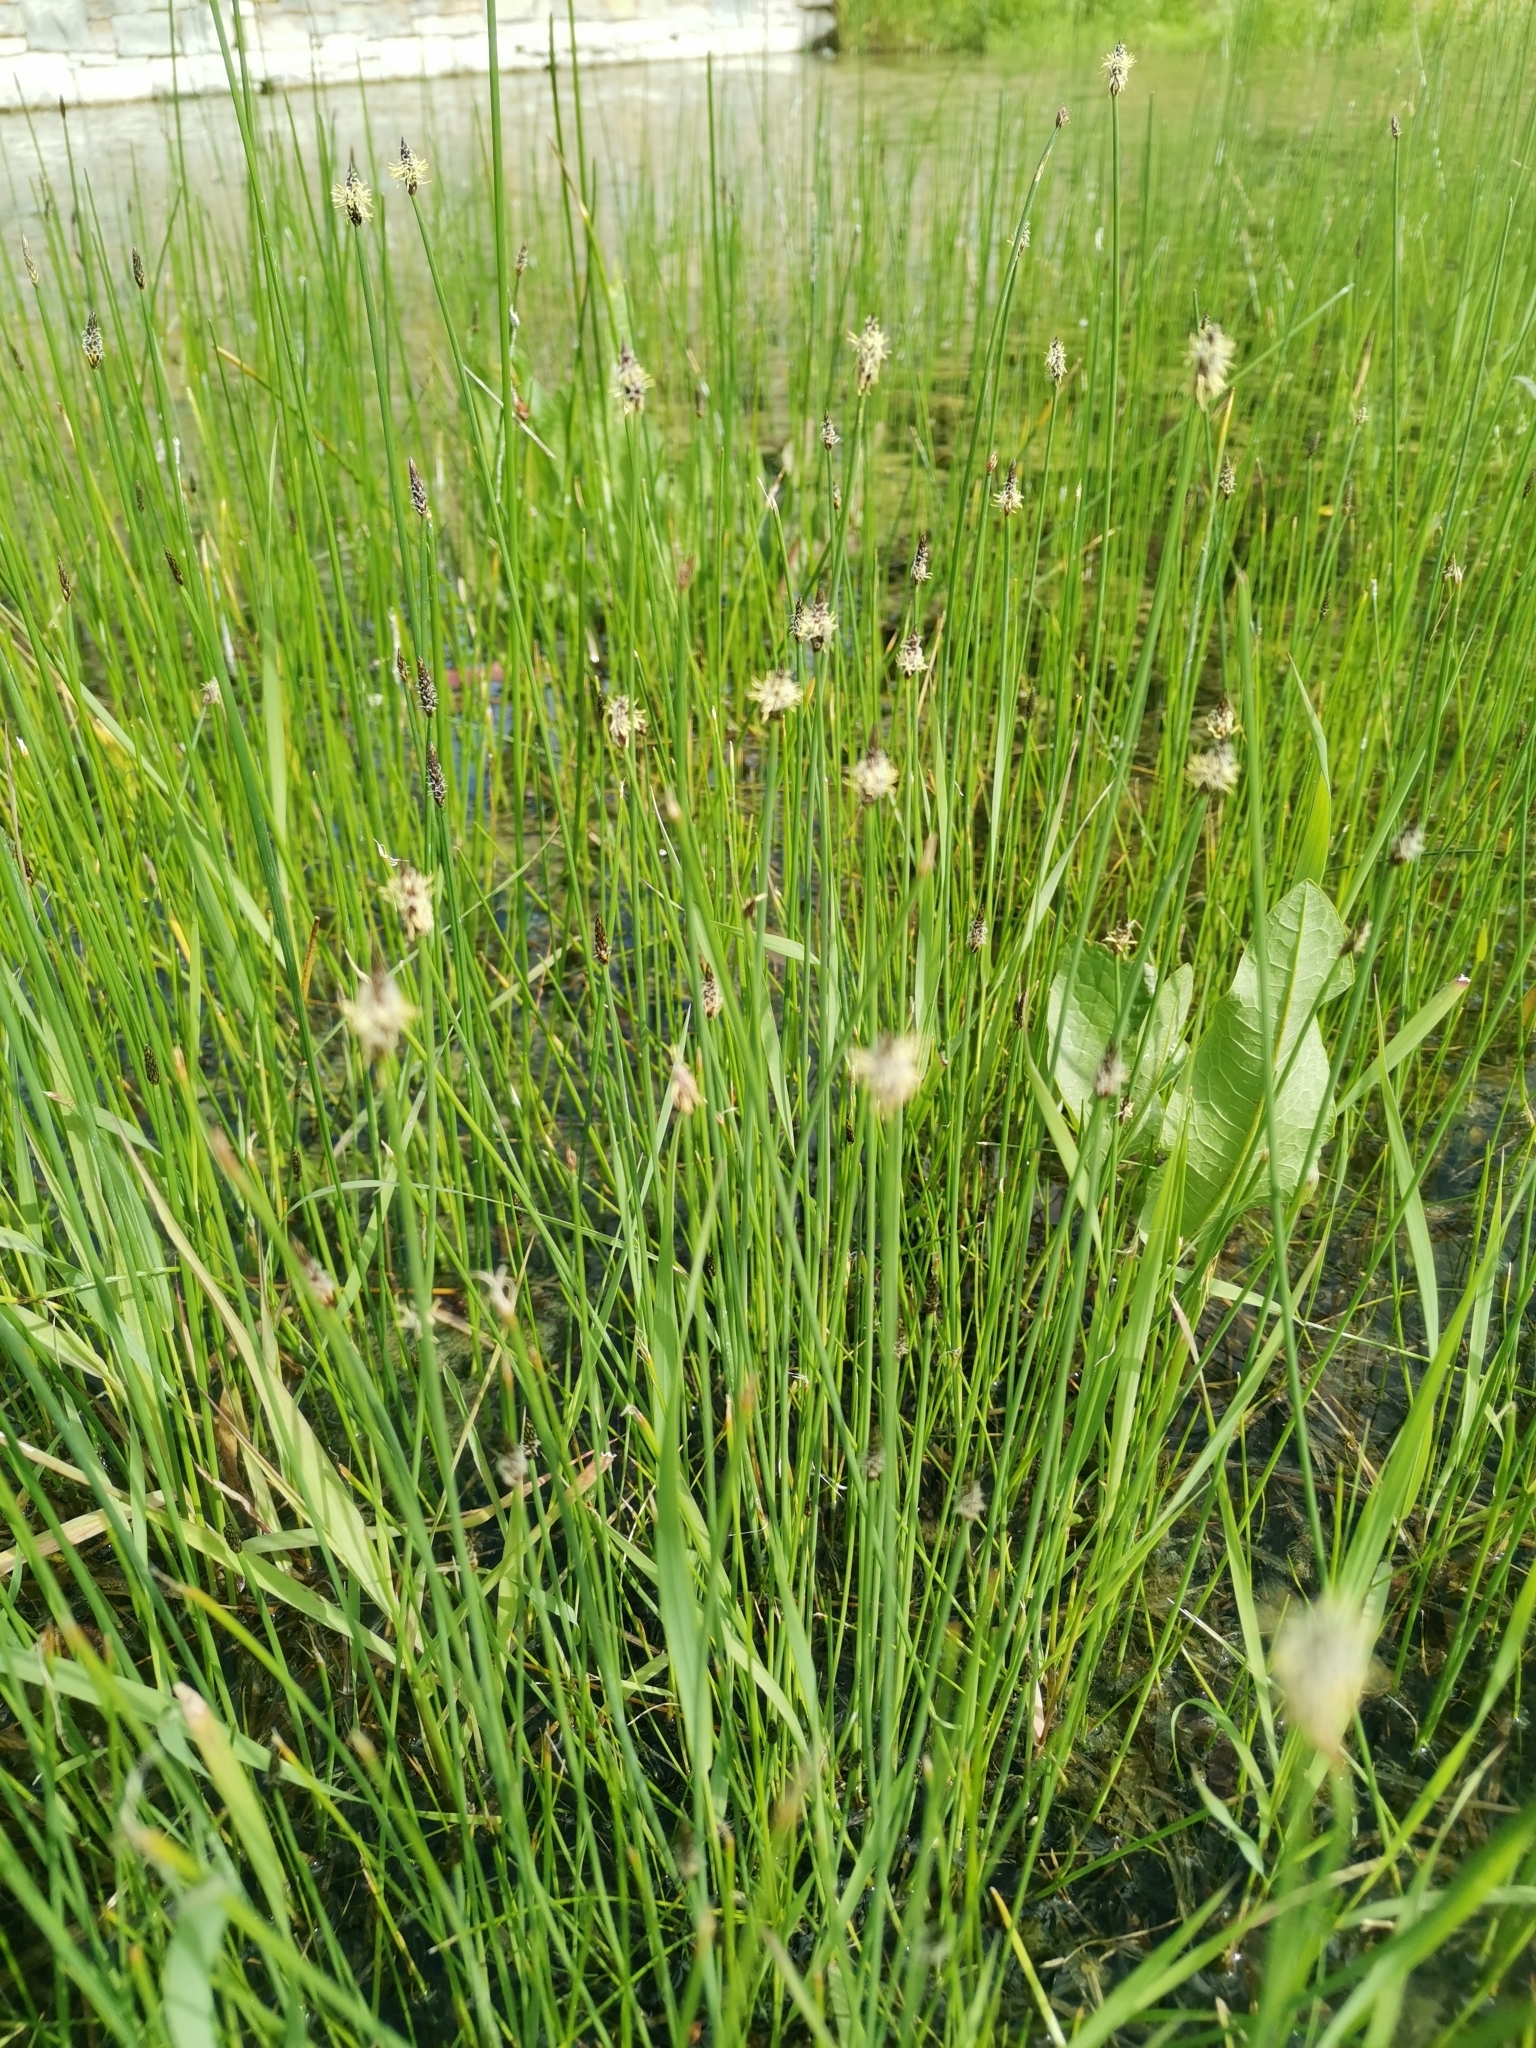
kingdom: Plantae
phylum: Tracheophyta
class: Liliopsida
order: Poales
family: Cyperaceae
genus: Eleocharis
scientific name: Eleocharis palustris
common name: Common spike-rush
